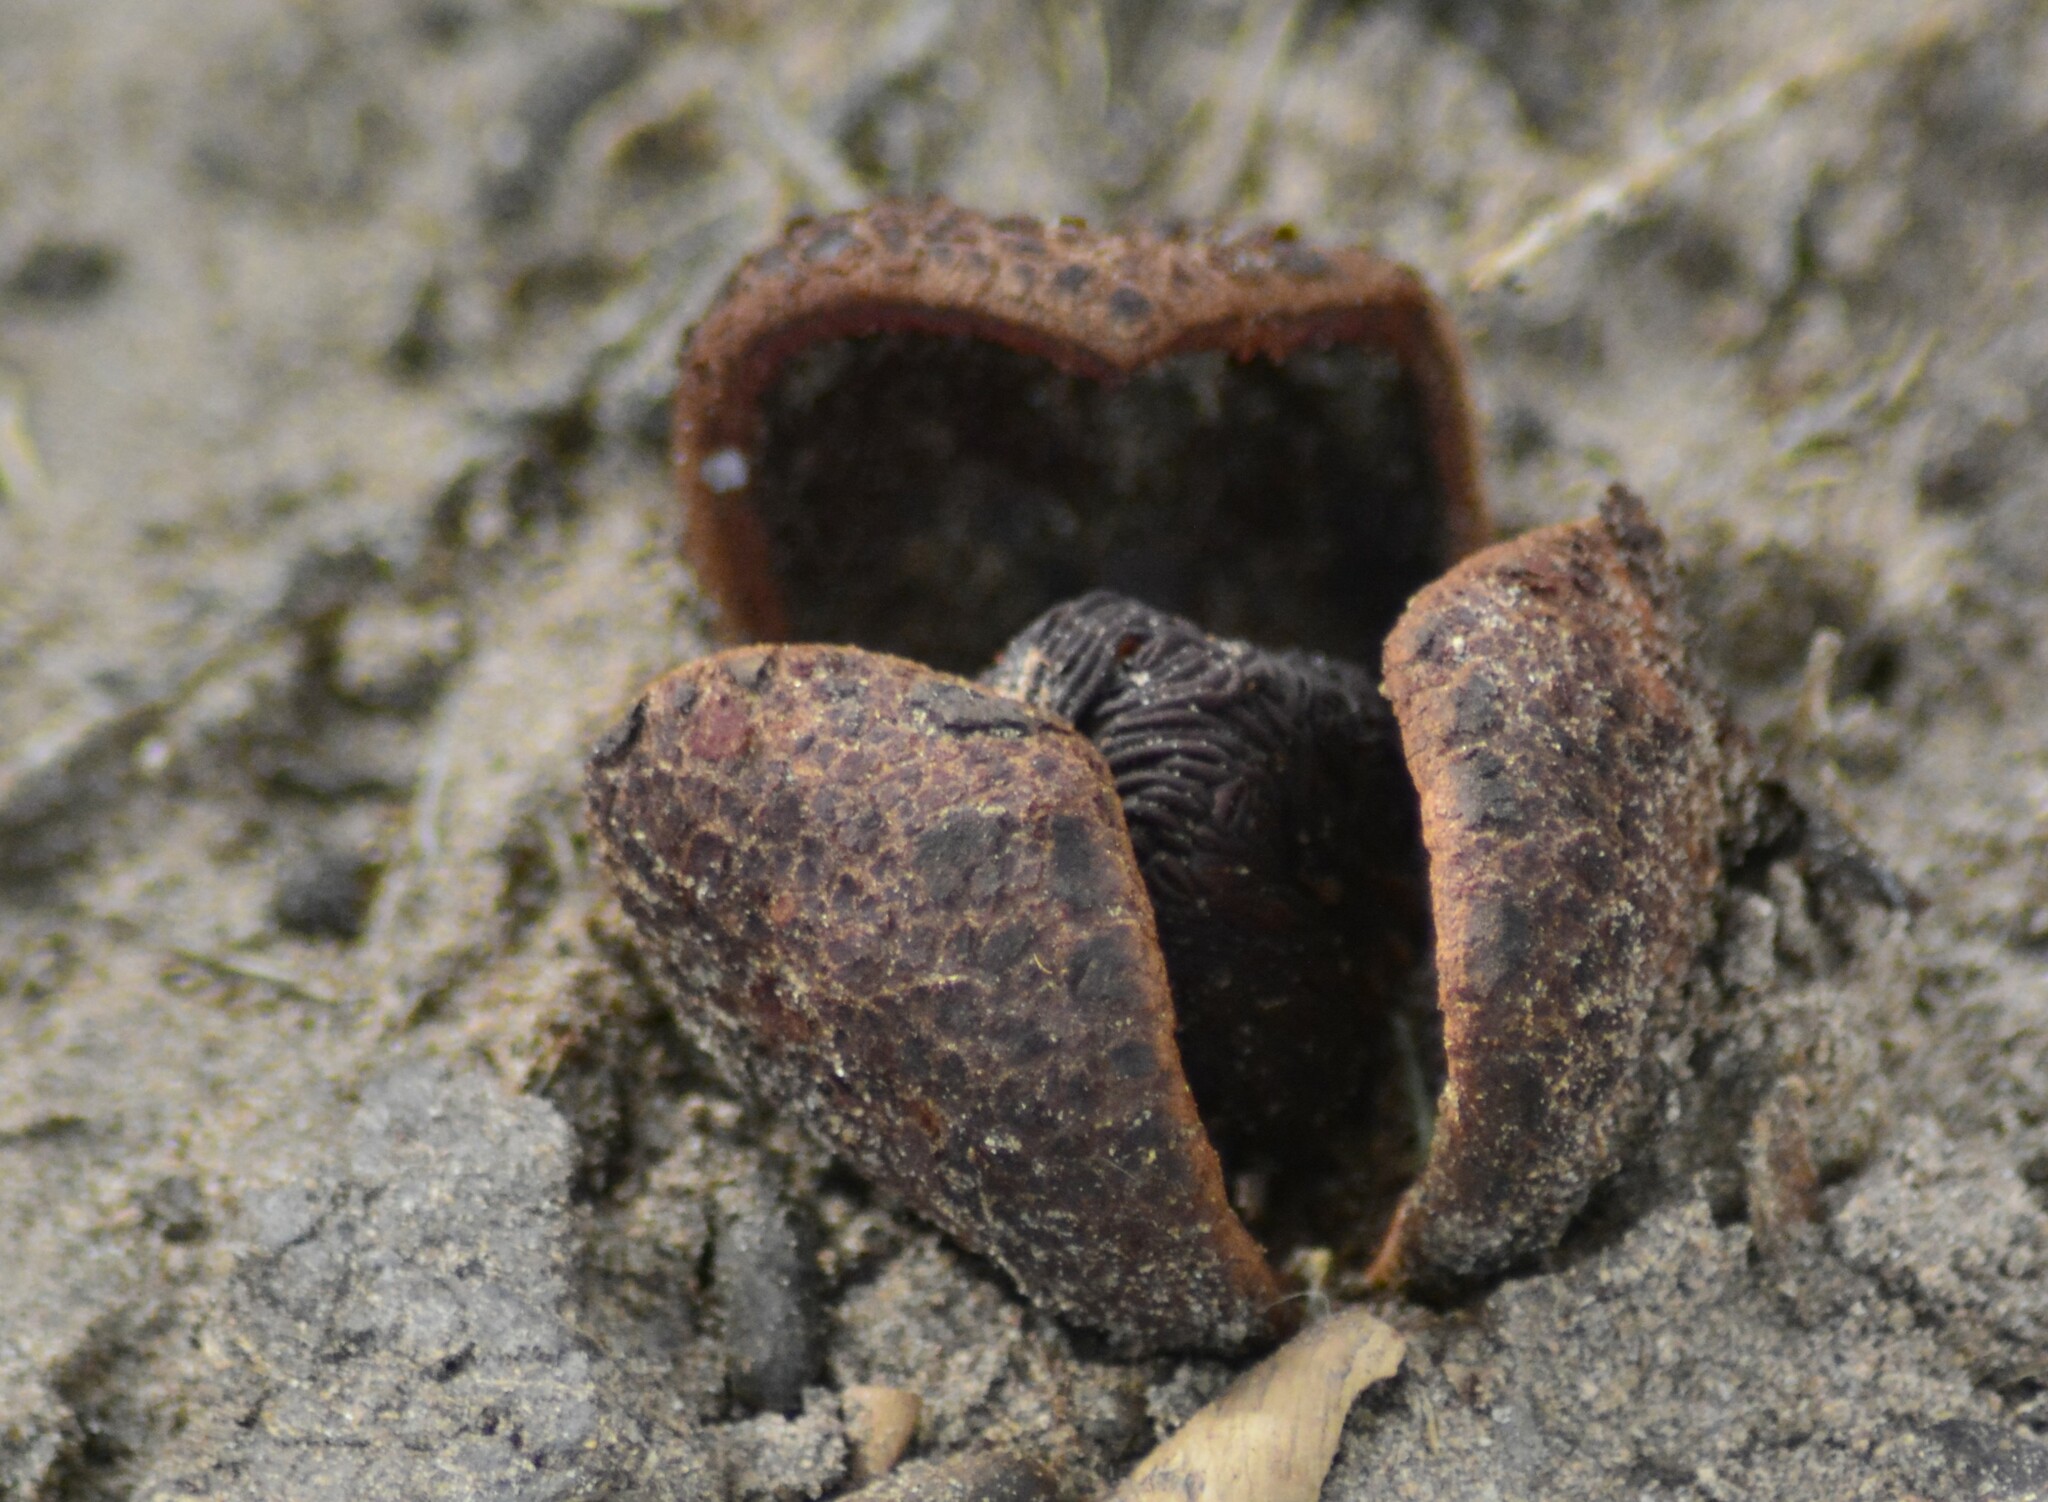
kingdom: Plantae
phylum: Tracheophyta
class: Magnoliopsida
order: Piperales
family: Hydnoraceae
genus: Prosopanche
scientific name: Prosopanche americana
